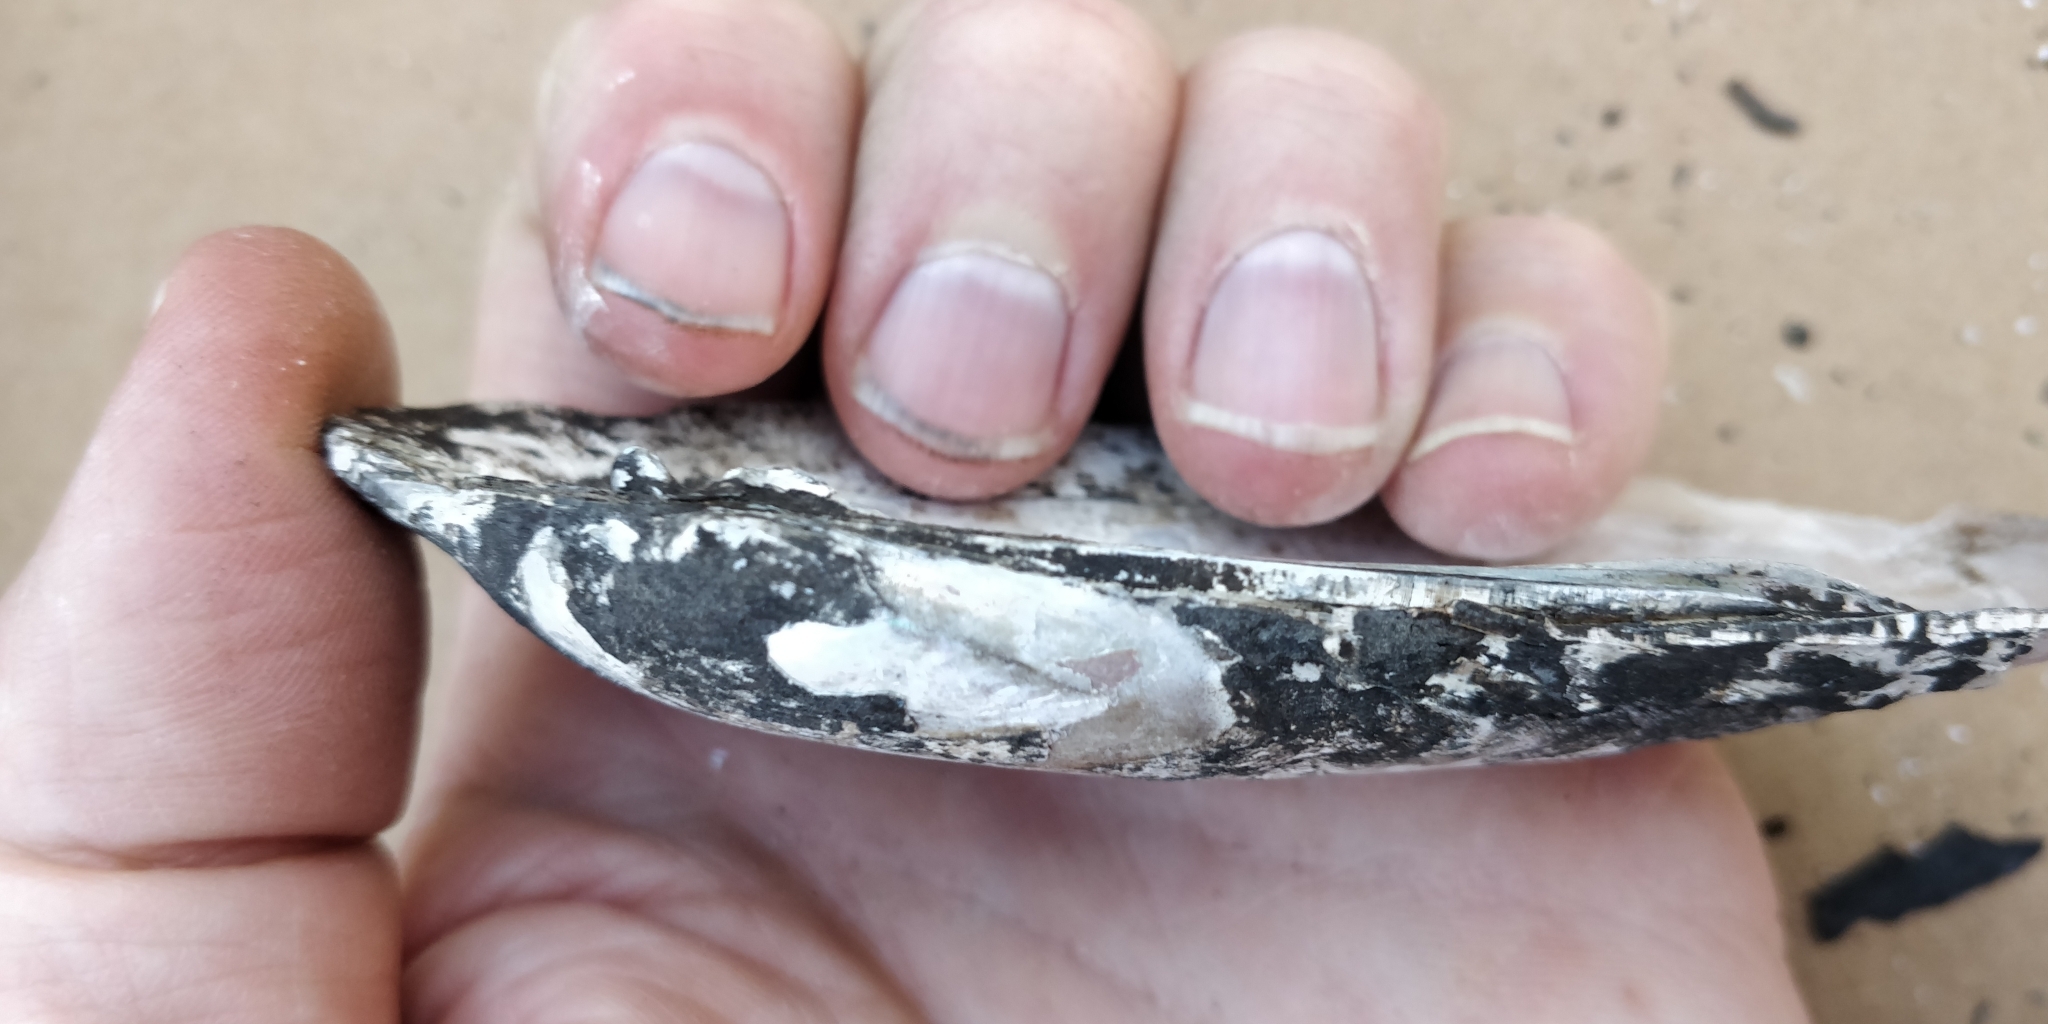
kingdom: Animalia
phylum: Mollusca
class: Bivalvia
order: Unionida
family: Unionidae
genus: Ligumia
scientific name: Ligumia recta
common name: Black sandshell
